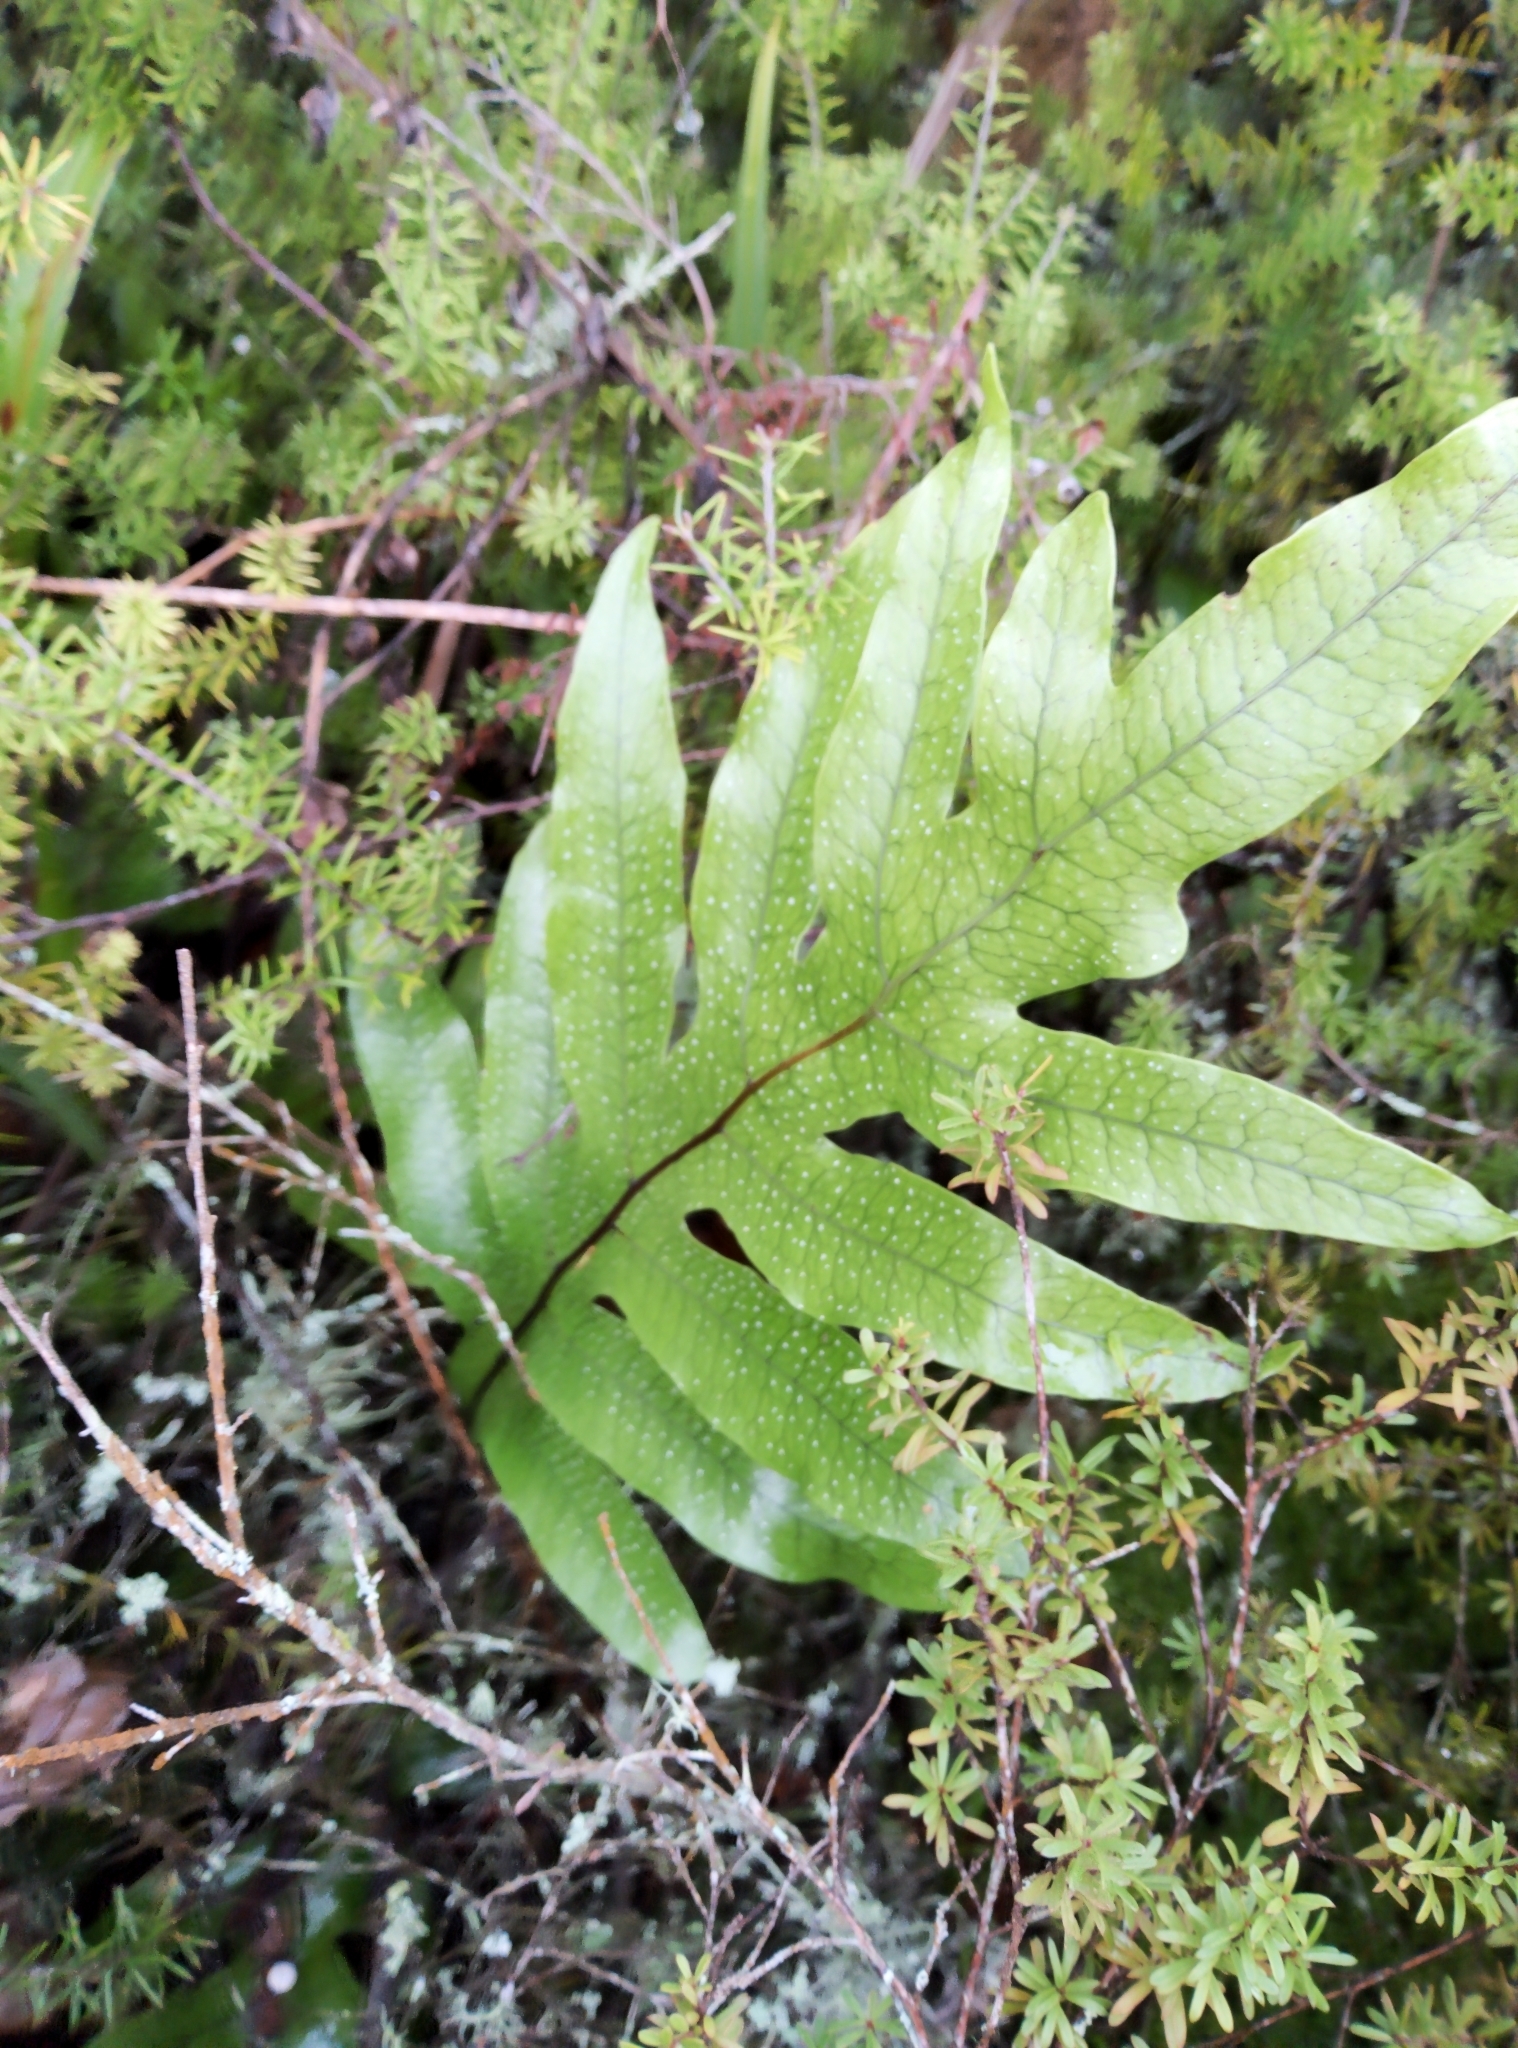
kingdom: Plantae
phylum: Tracheophyta
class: Polypodiopsida
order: Polypodiales
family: Polypodiaceae
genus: Lecanopteris
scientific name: Lecanopteris pustulata
